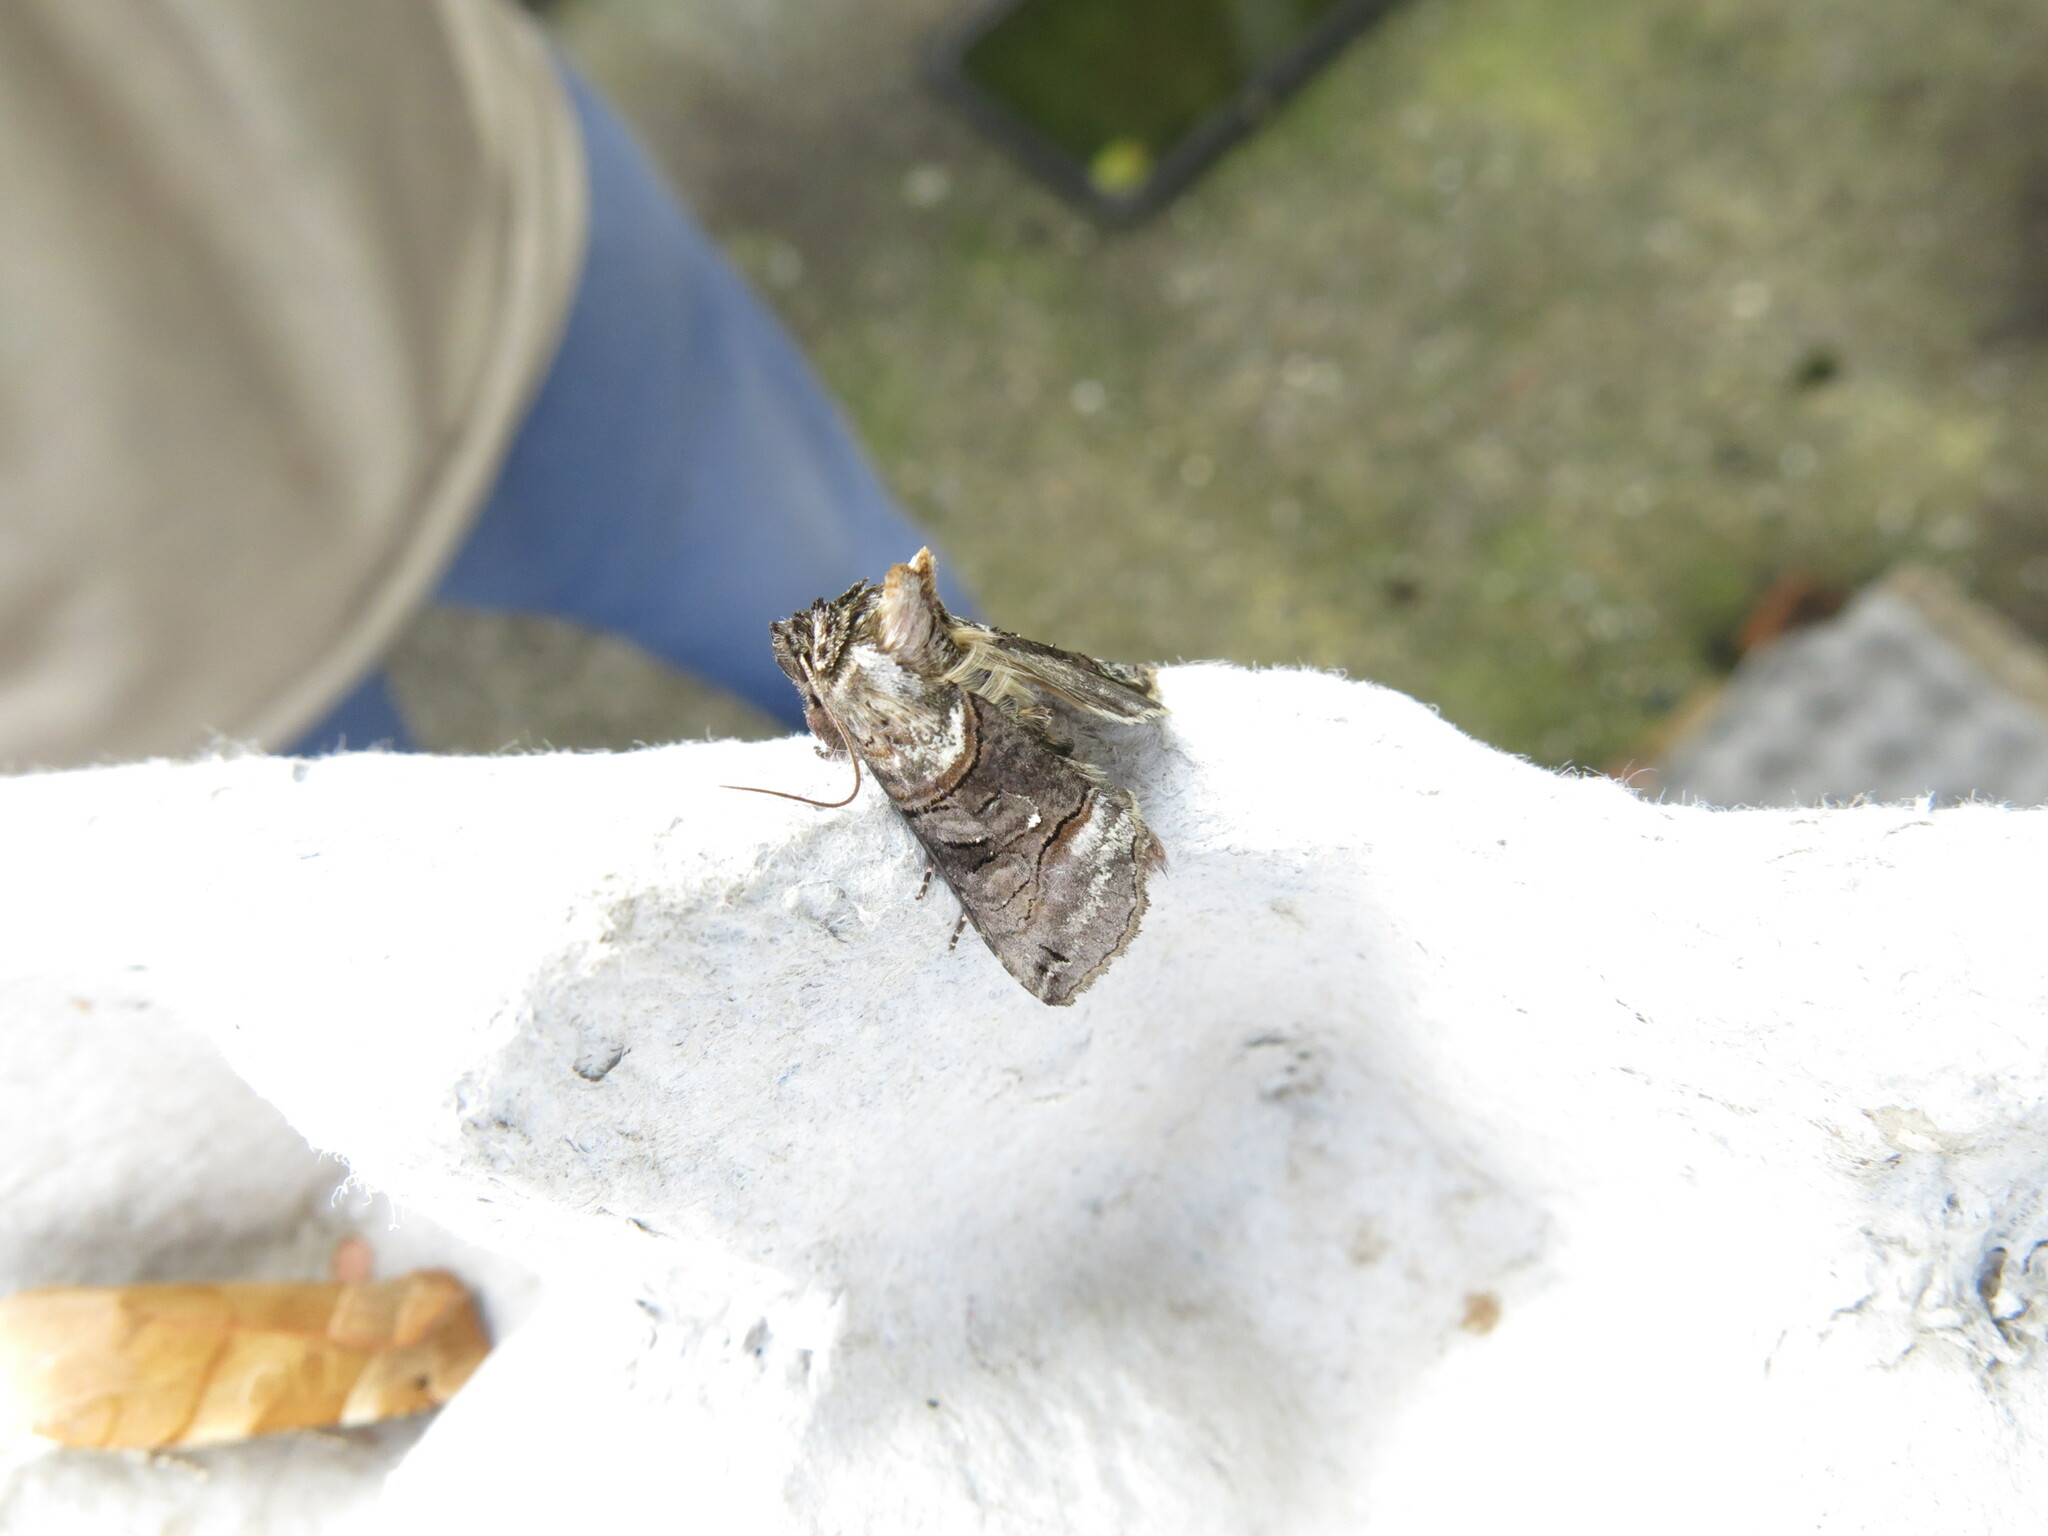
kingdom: Animalia
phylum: Arthropoda
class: Insecta
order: Lepidoptera
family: Noctuidae
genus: Abrostola
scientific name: Abrostola tripartita
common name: Spectacle
